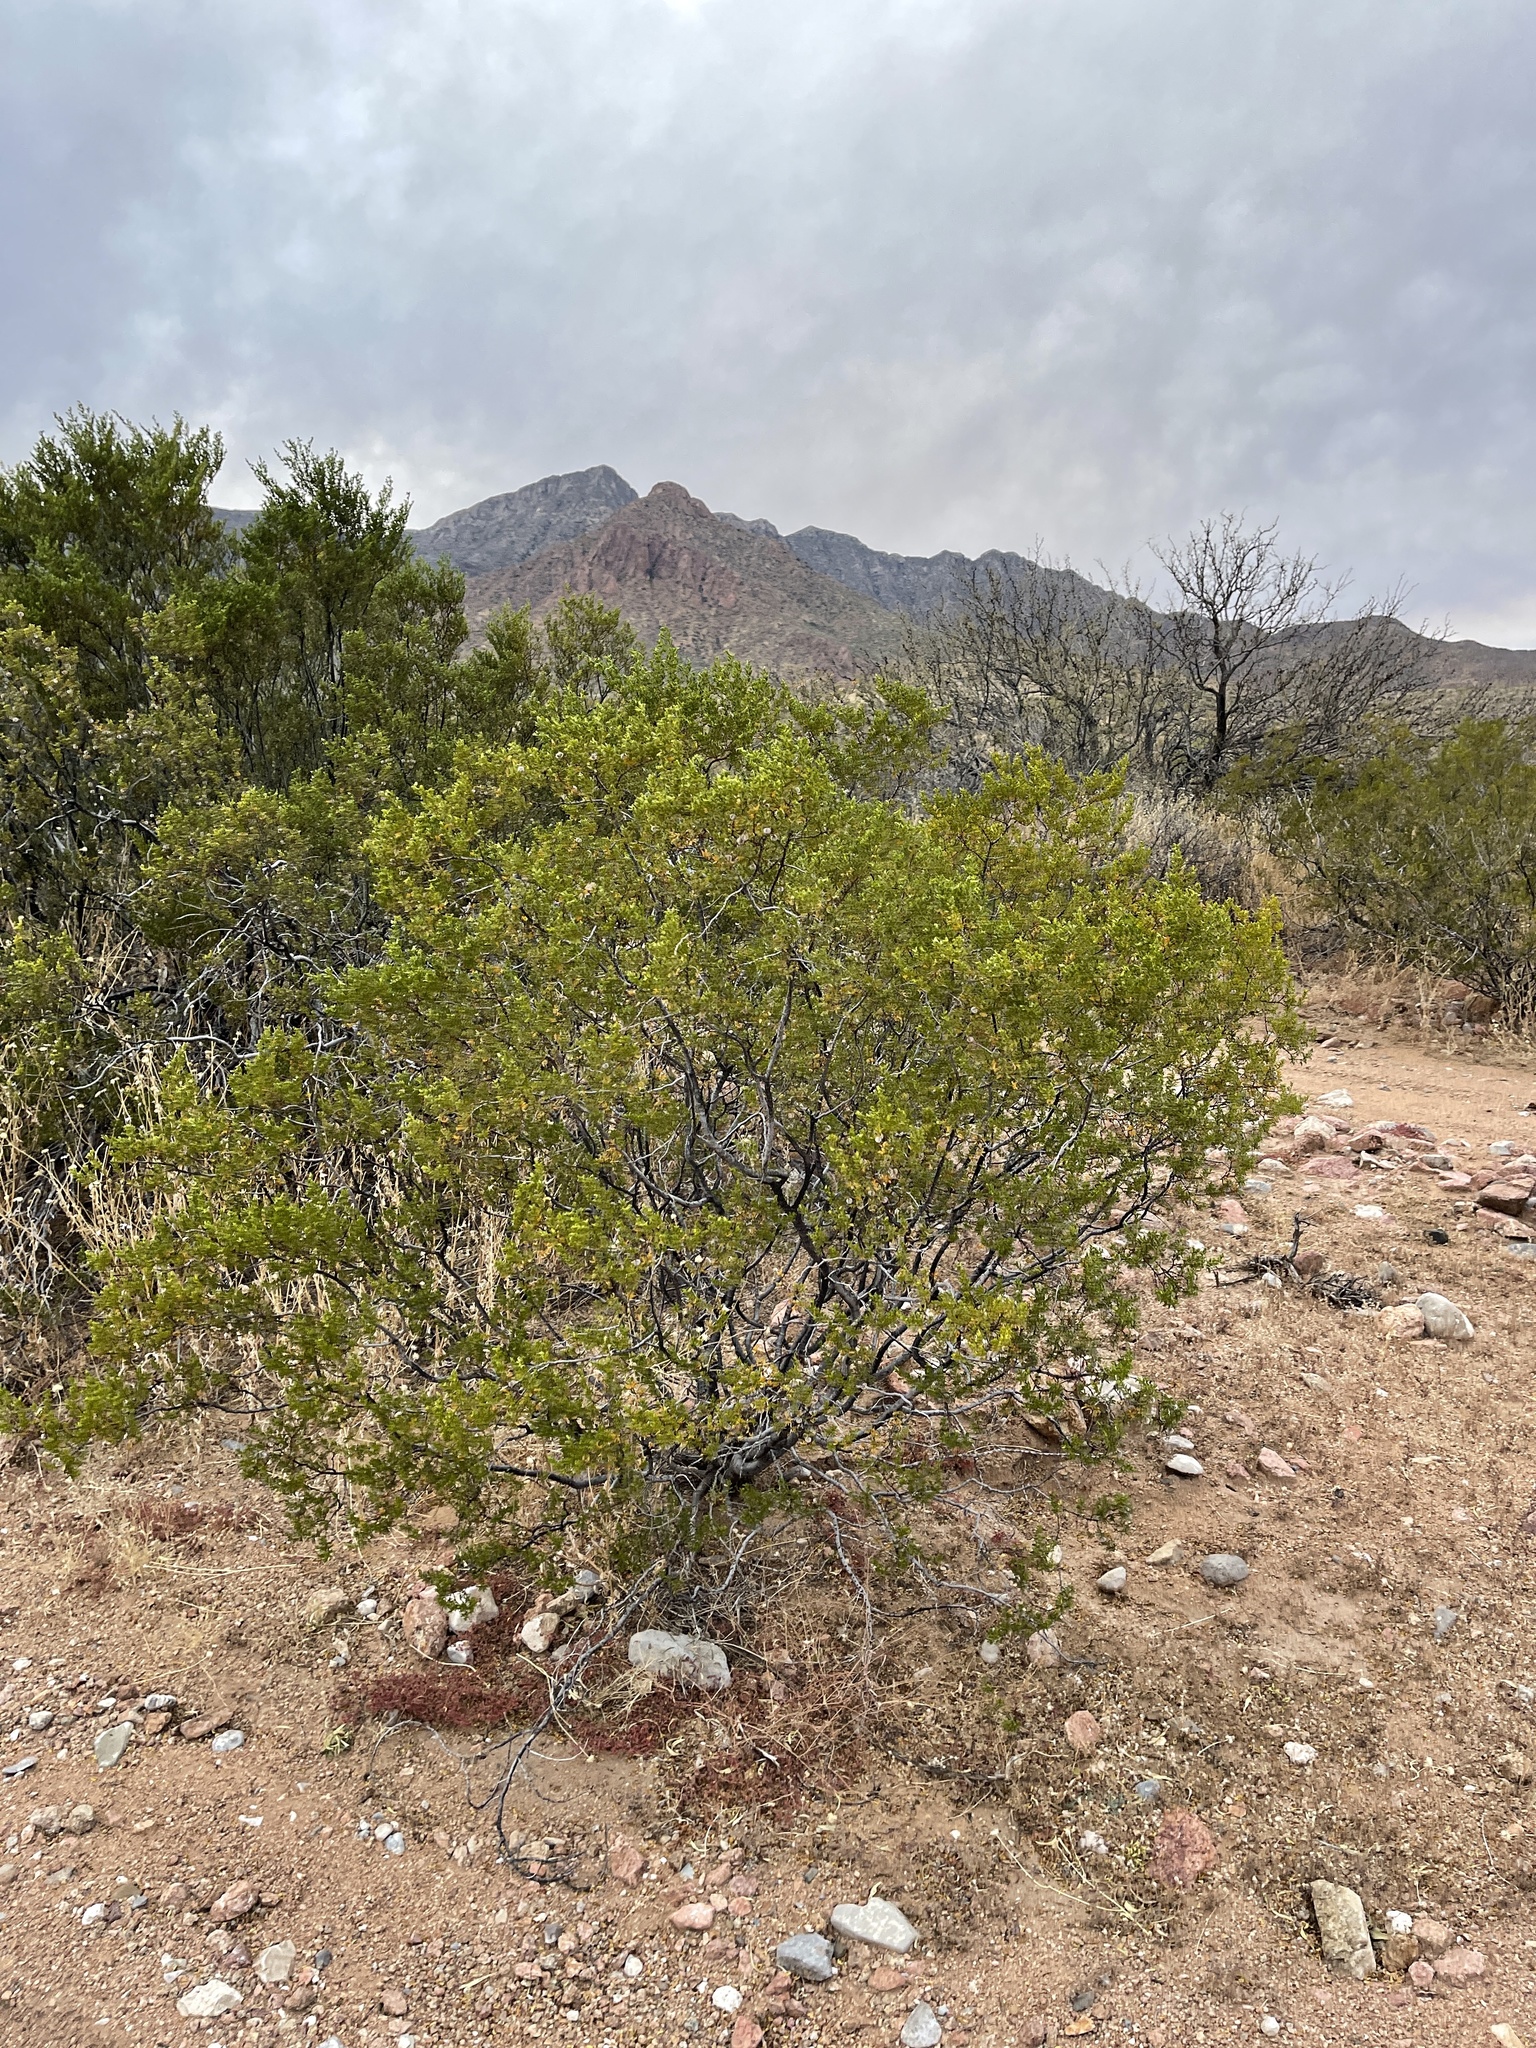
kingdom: Plantae
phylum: Tracheophyta
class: Magnoliopsida
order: Zygophyllales
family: Zygophyllaceae
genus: Larrea
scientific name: Larrea tridentata
